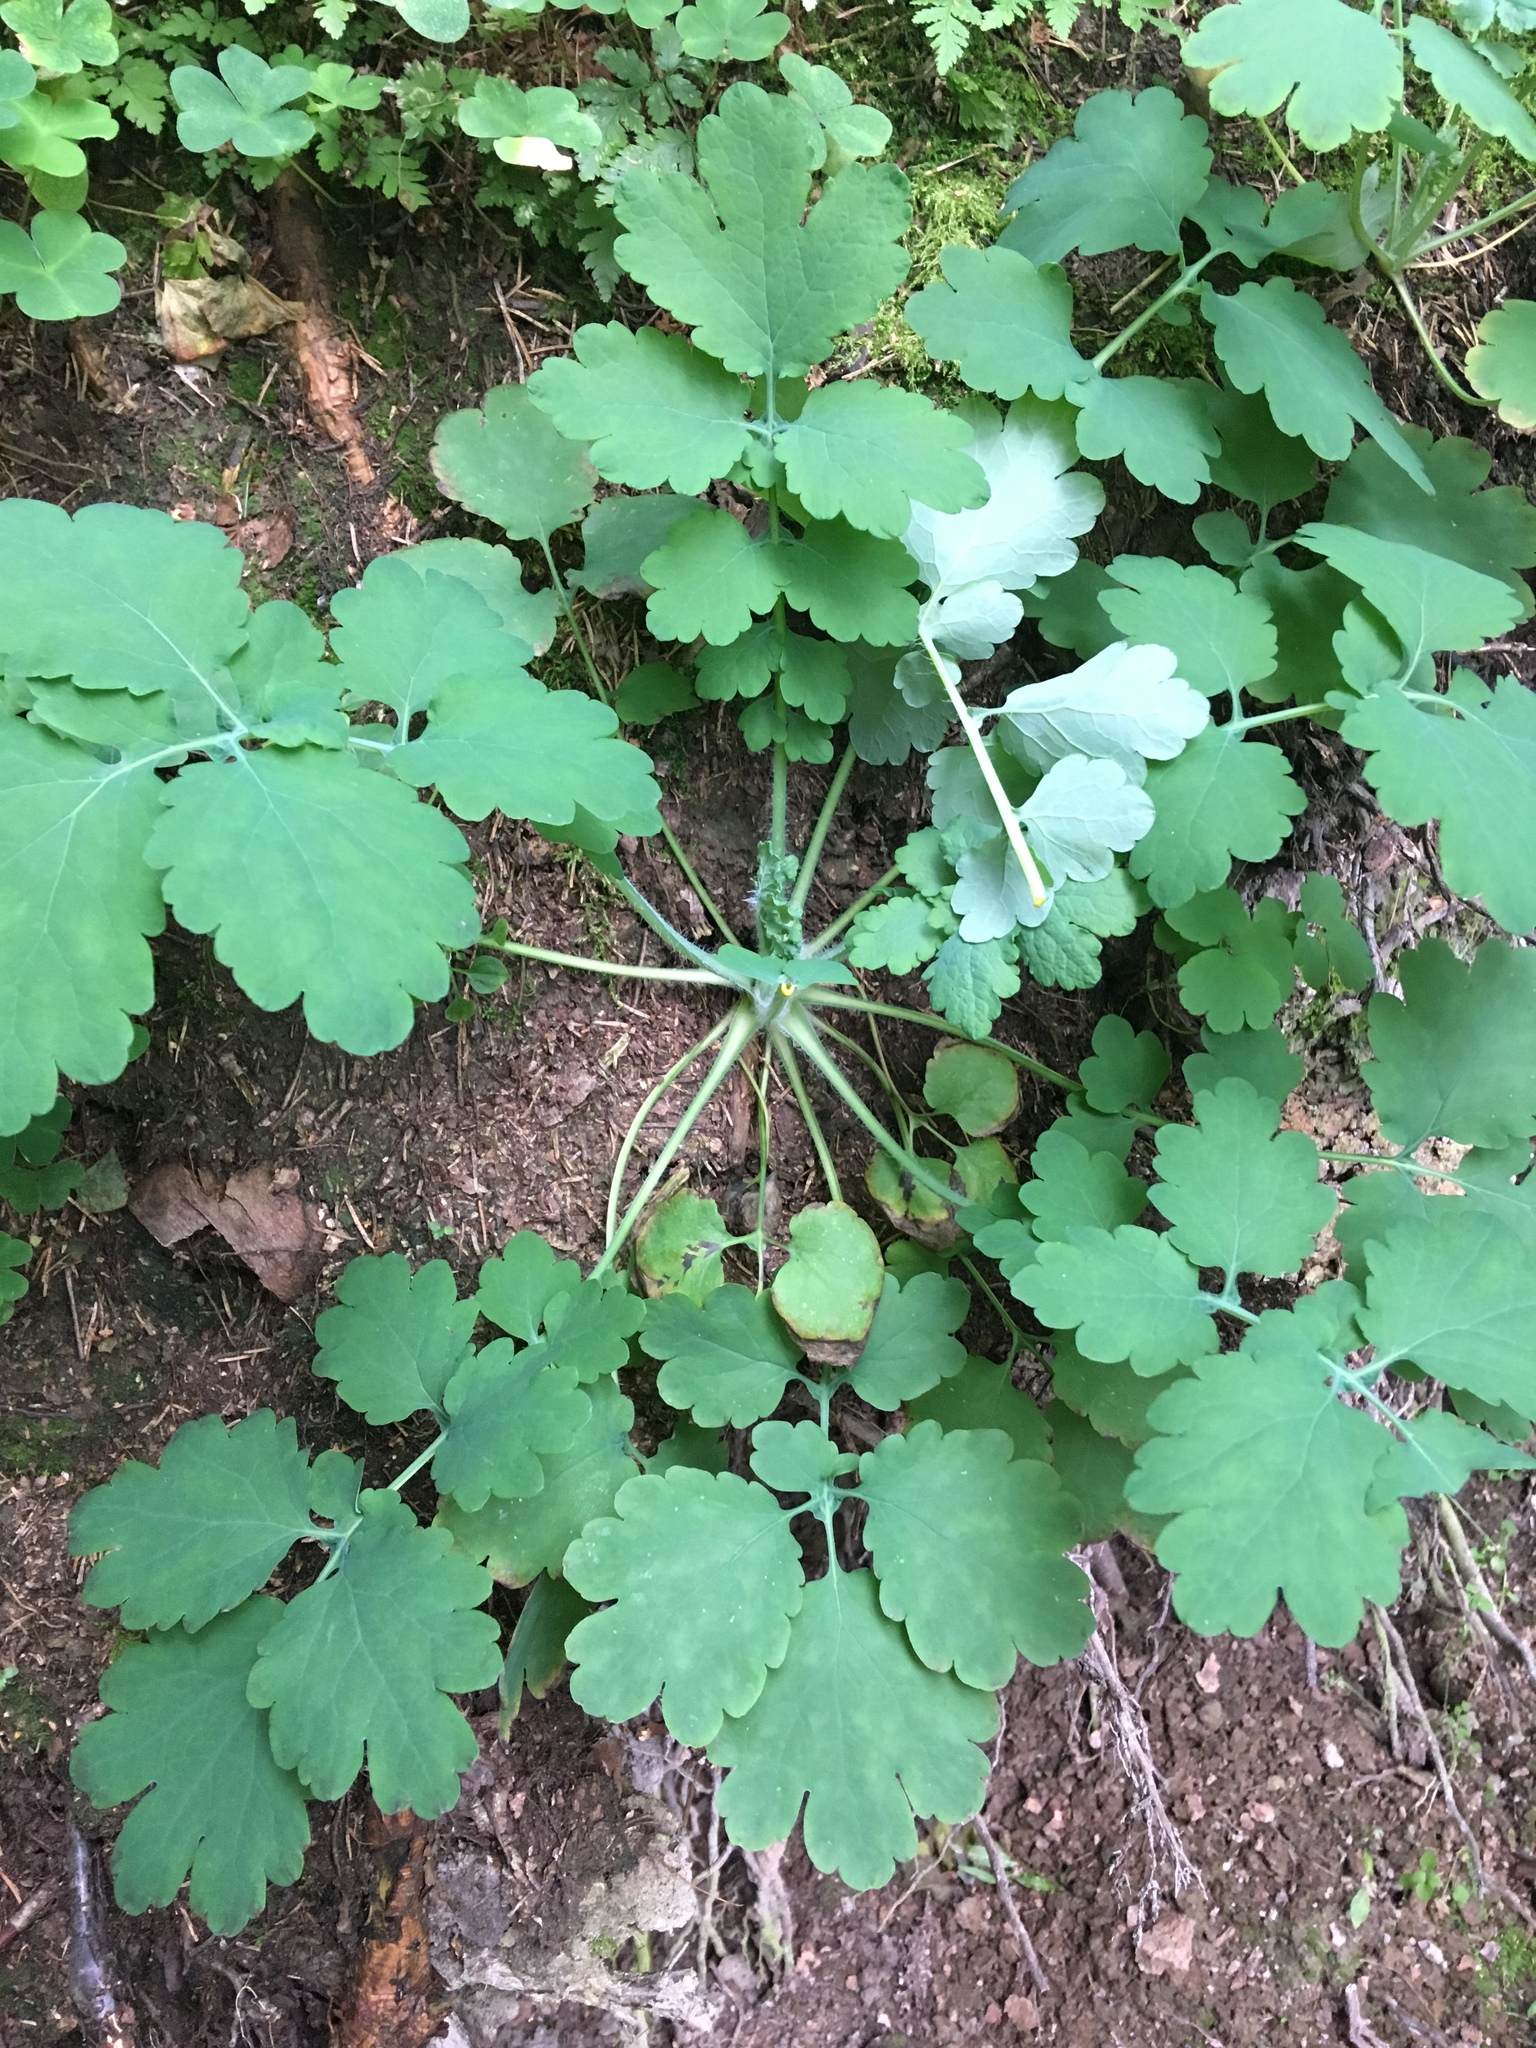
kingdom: Plantae
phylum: Tracheophyta
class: Magnoliopsida
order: Ranunculales
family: Papaveraceae
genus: Chelidonium
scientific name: Chelidonium majus
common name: Greater celandine
